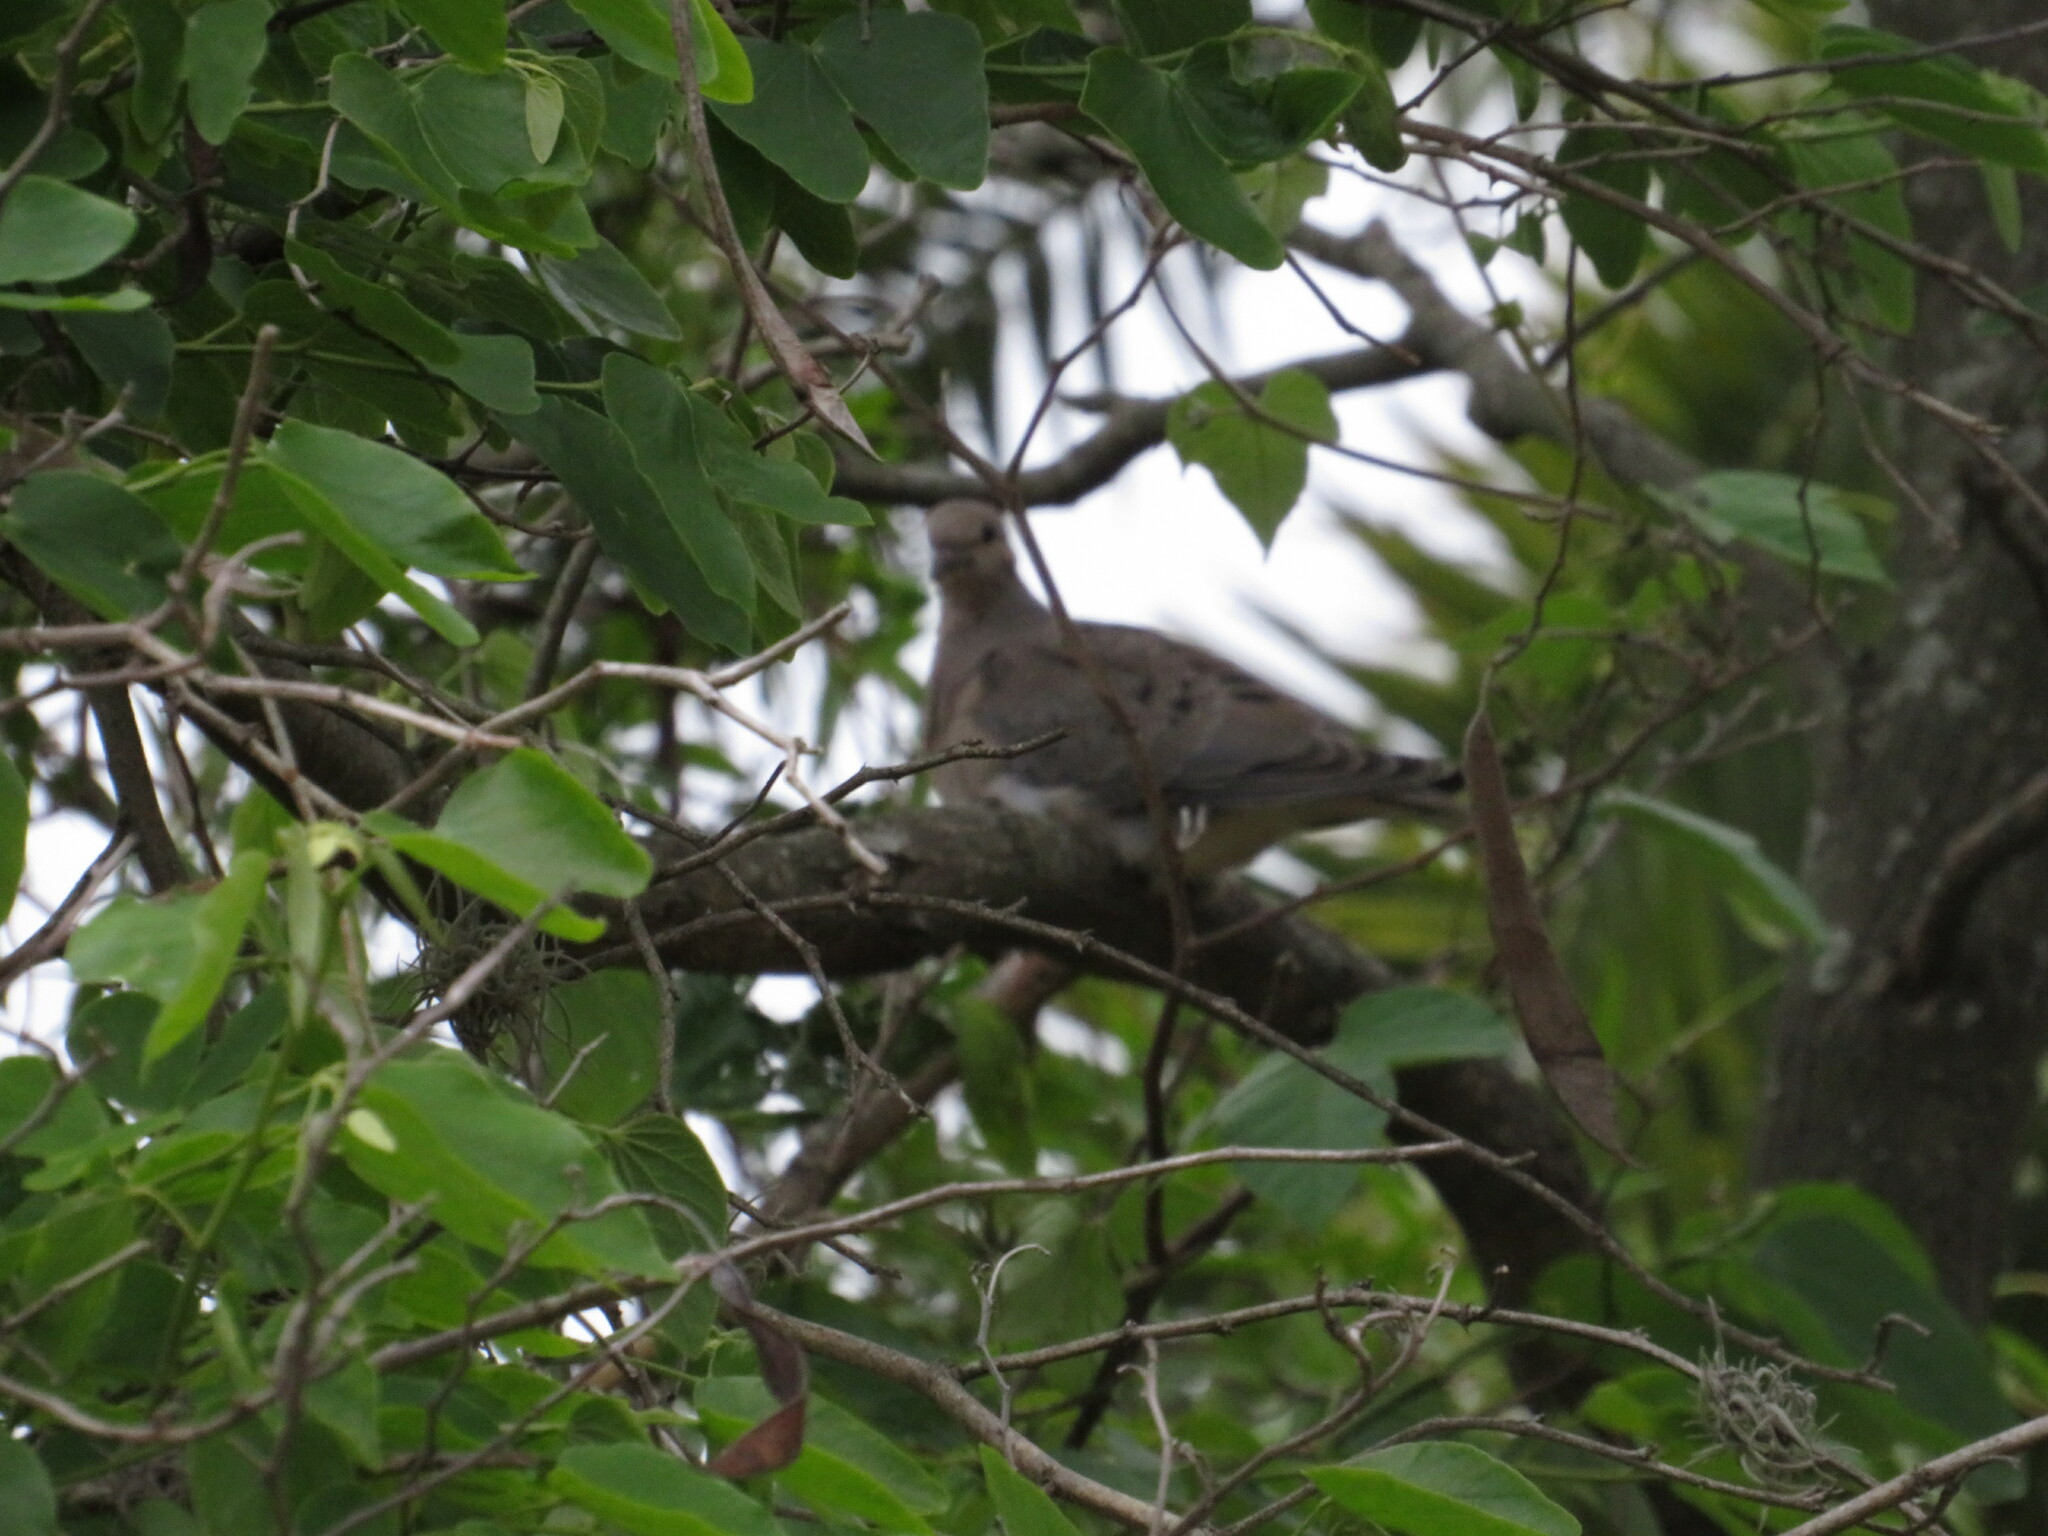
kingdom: Animalia
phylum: Chordata
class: Aves
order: Columbiformes
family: Columbidae
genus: Zenaida
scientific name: Zenaida auriculata
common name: Eared dove
